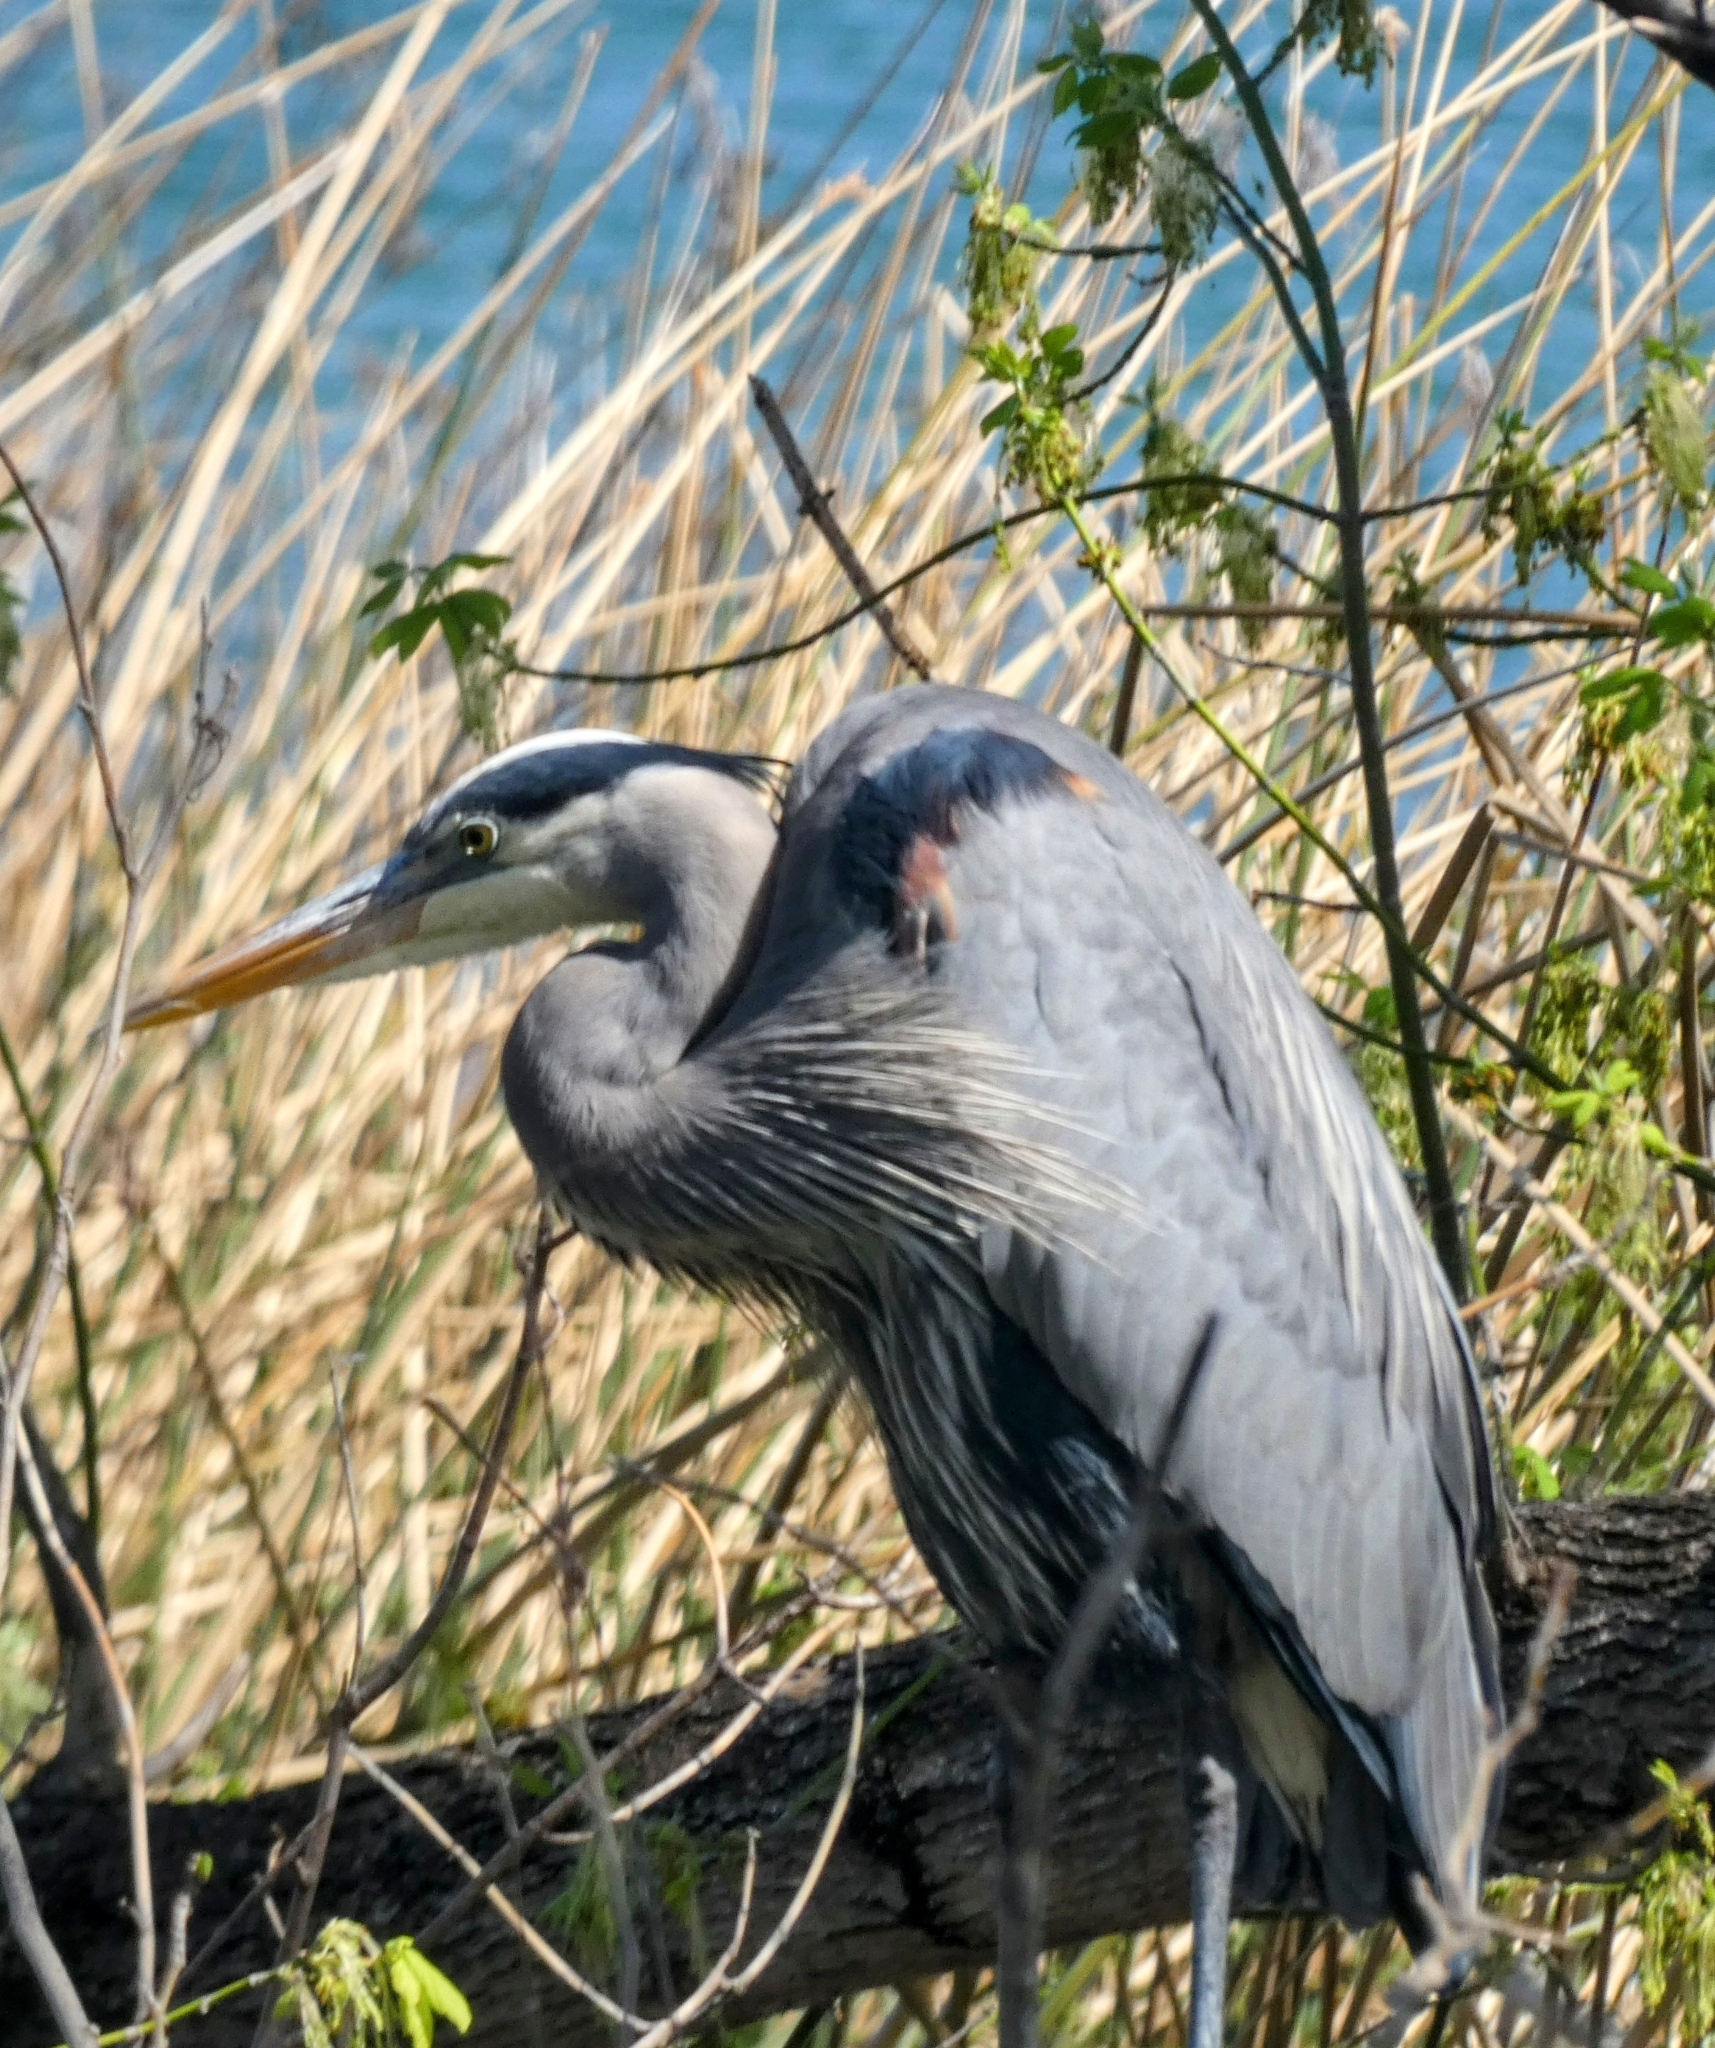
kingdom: Animalia
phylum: Chordata
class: Aves
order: Pelecaniformes
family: Ardeidae
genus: Ardea
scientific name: Ardea herodias
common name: Great blue heron
